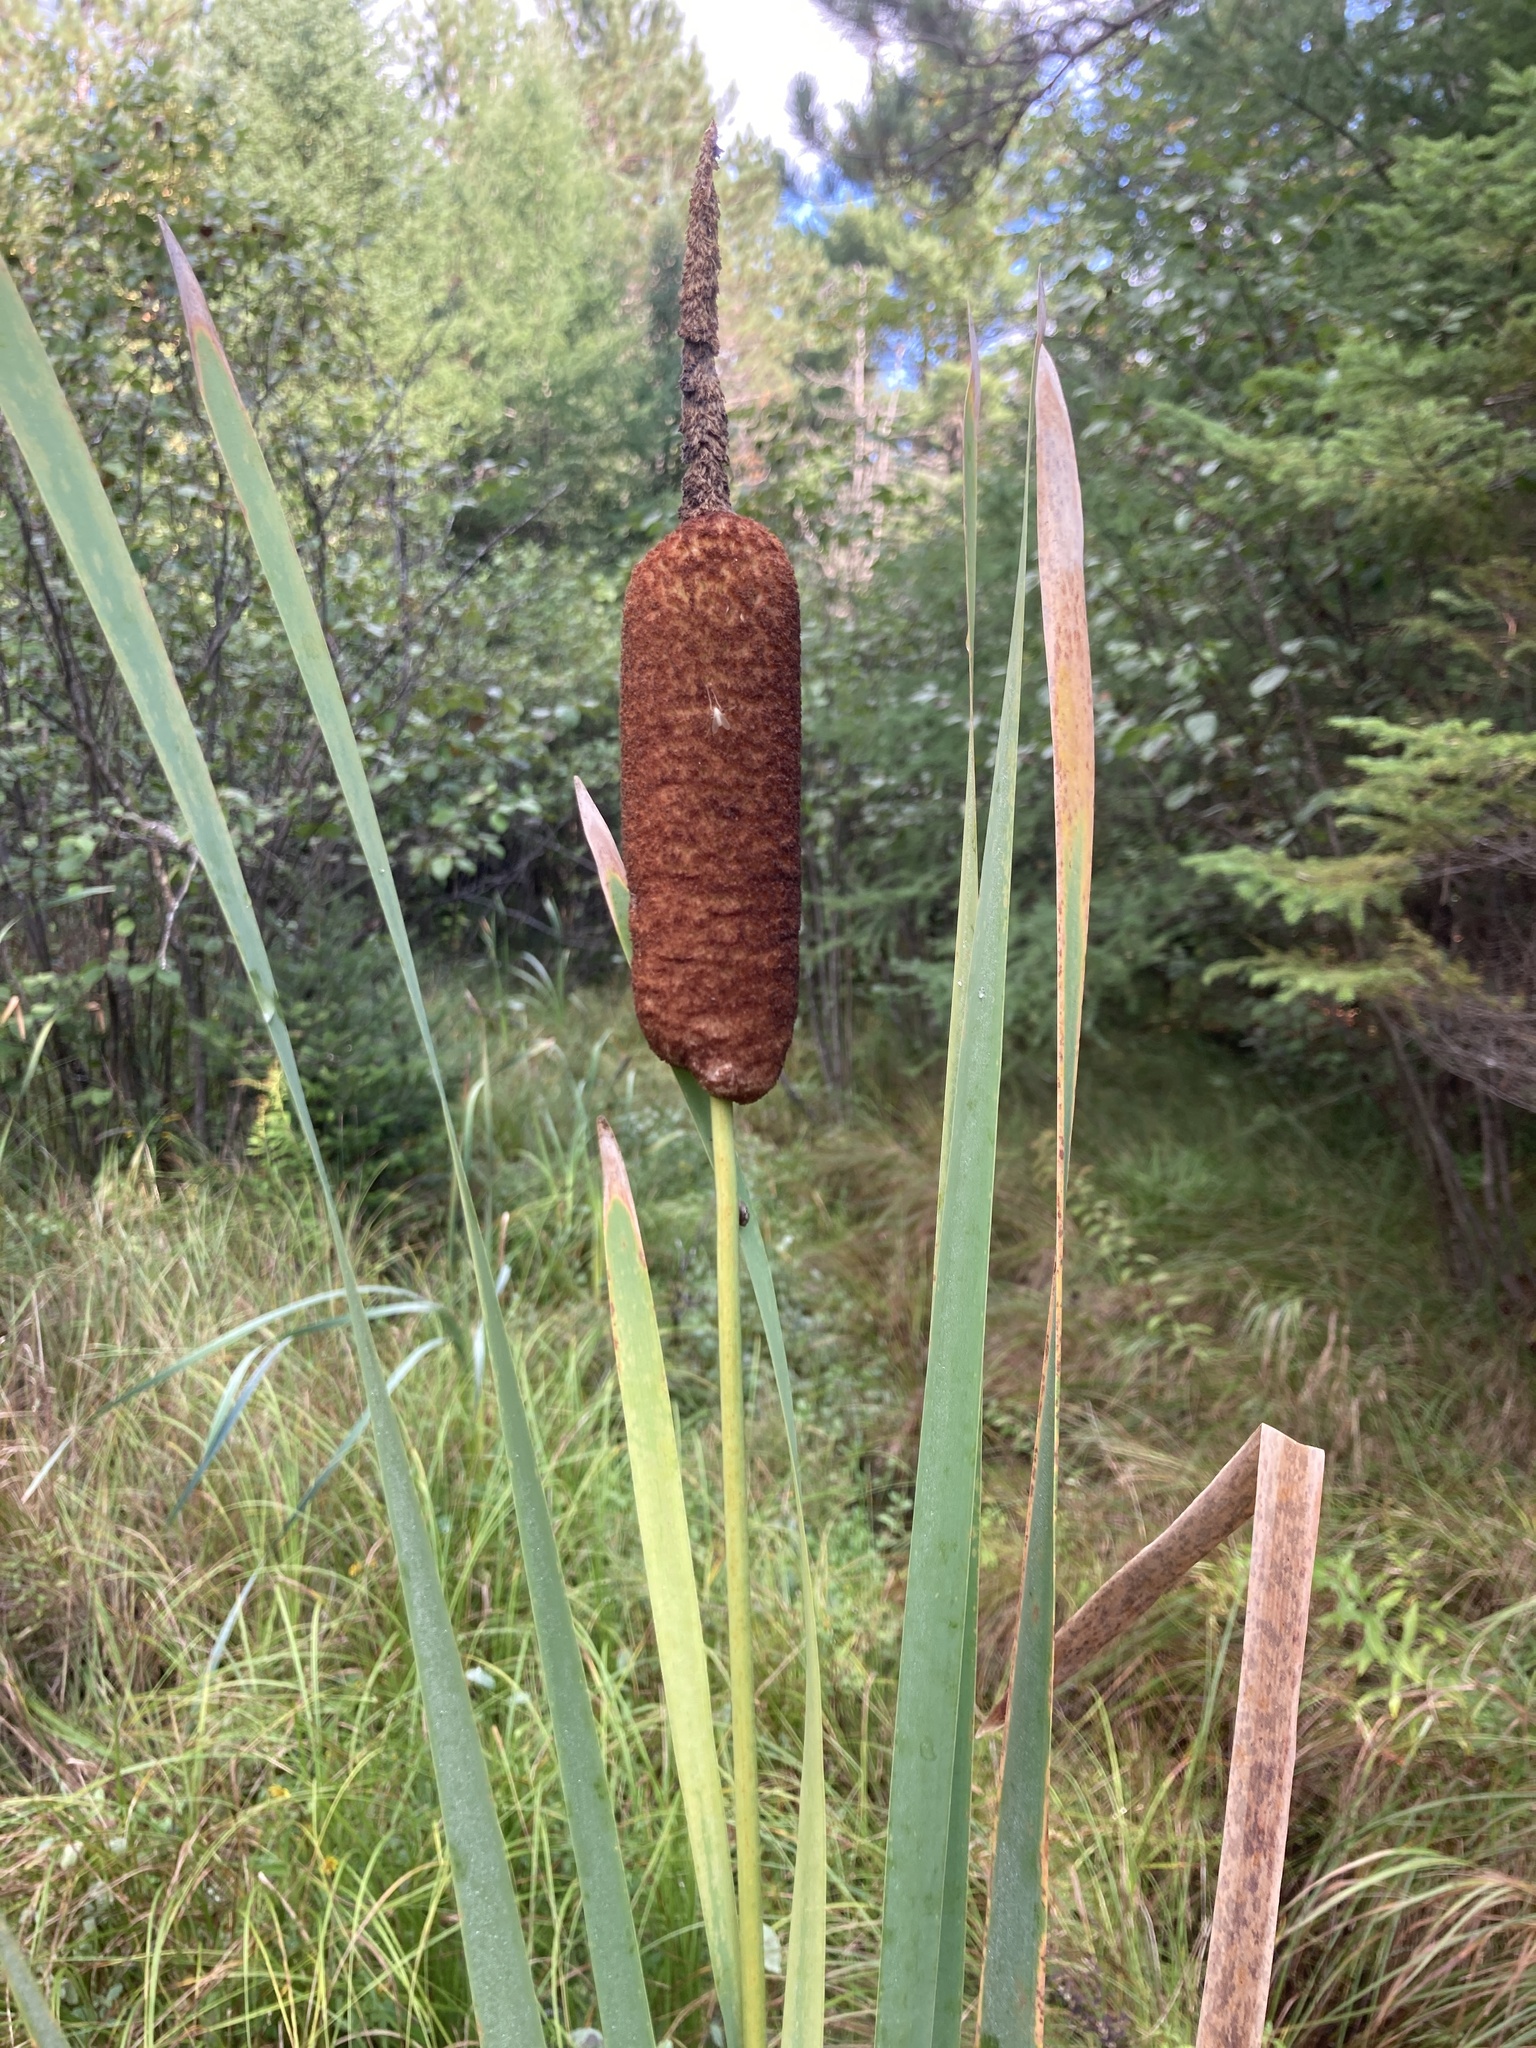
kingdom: Plantae
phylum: Tracheophyta
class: Liliopsida
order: Poales
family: Typhaceae
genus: Typha
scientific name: Typha latifolia
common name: Broadleaf cattail
